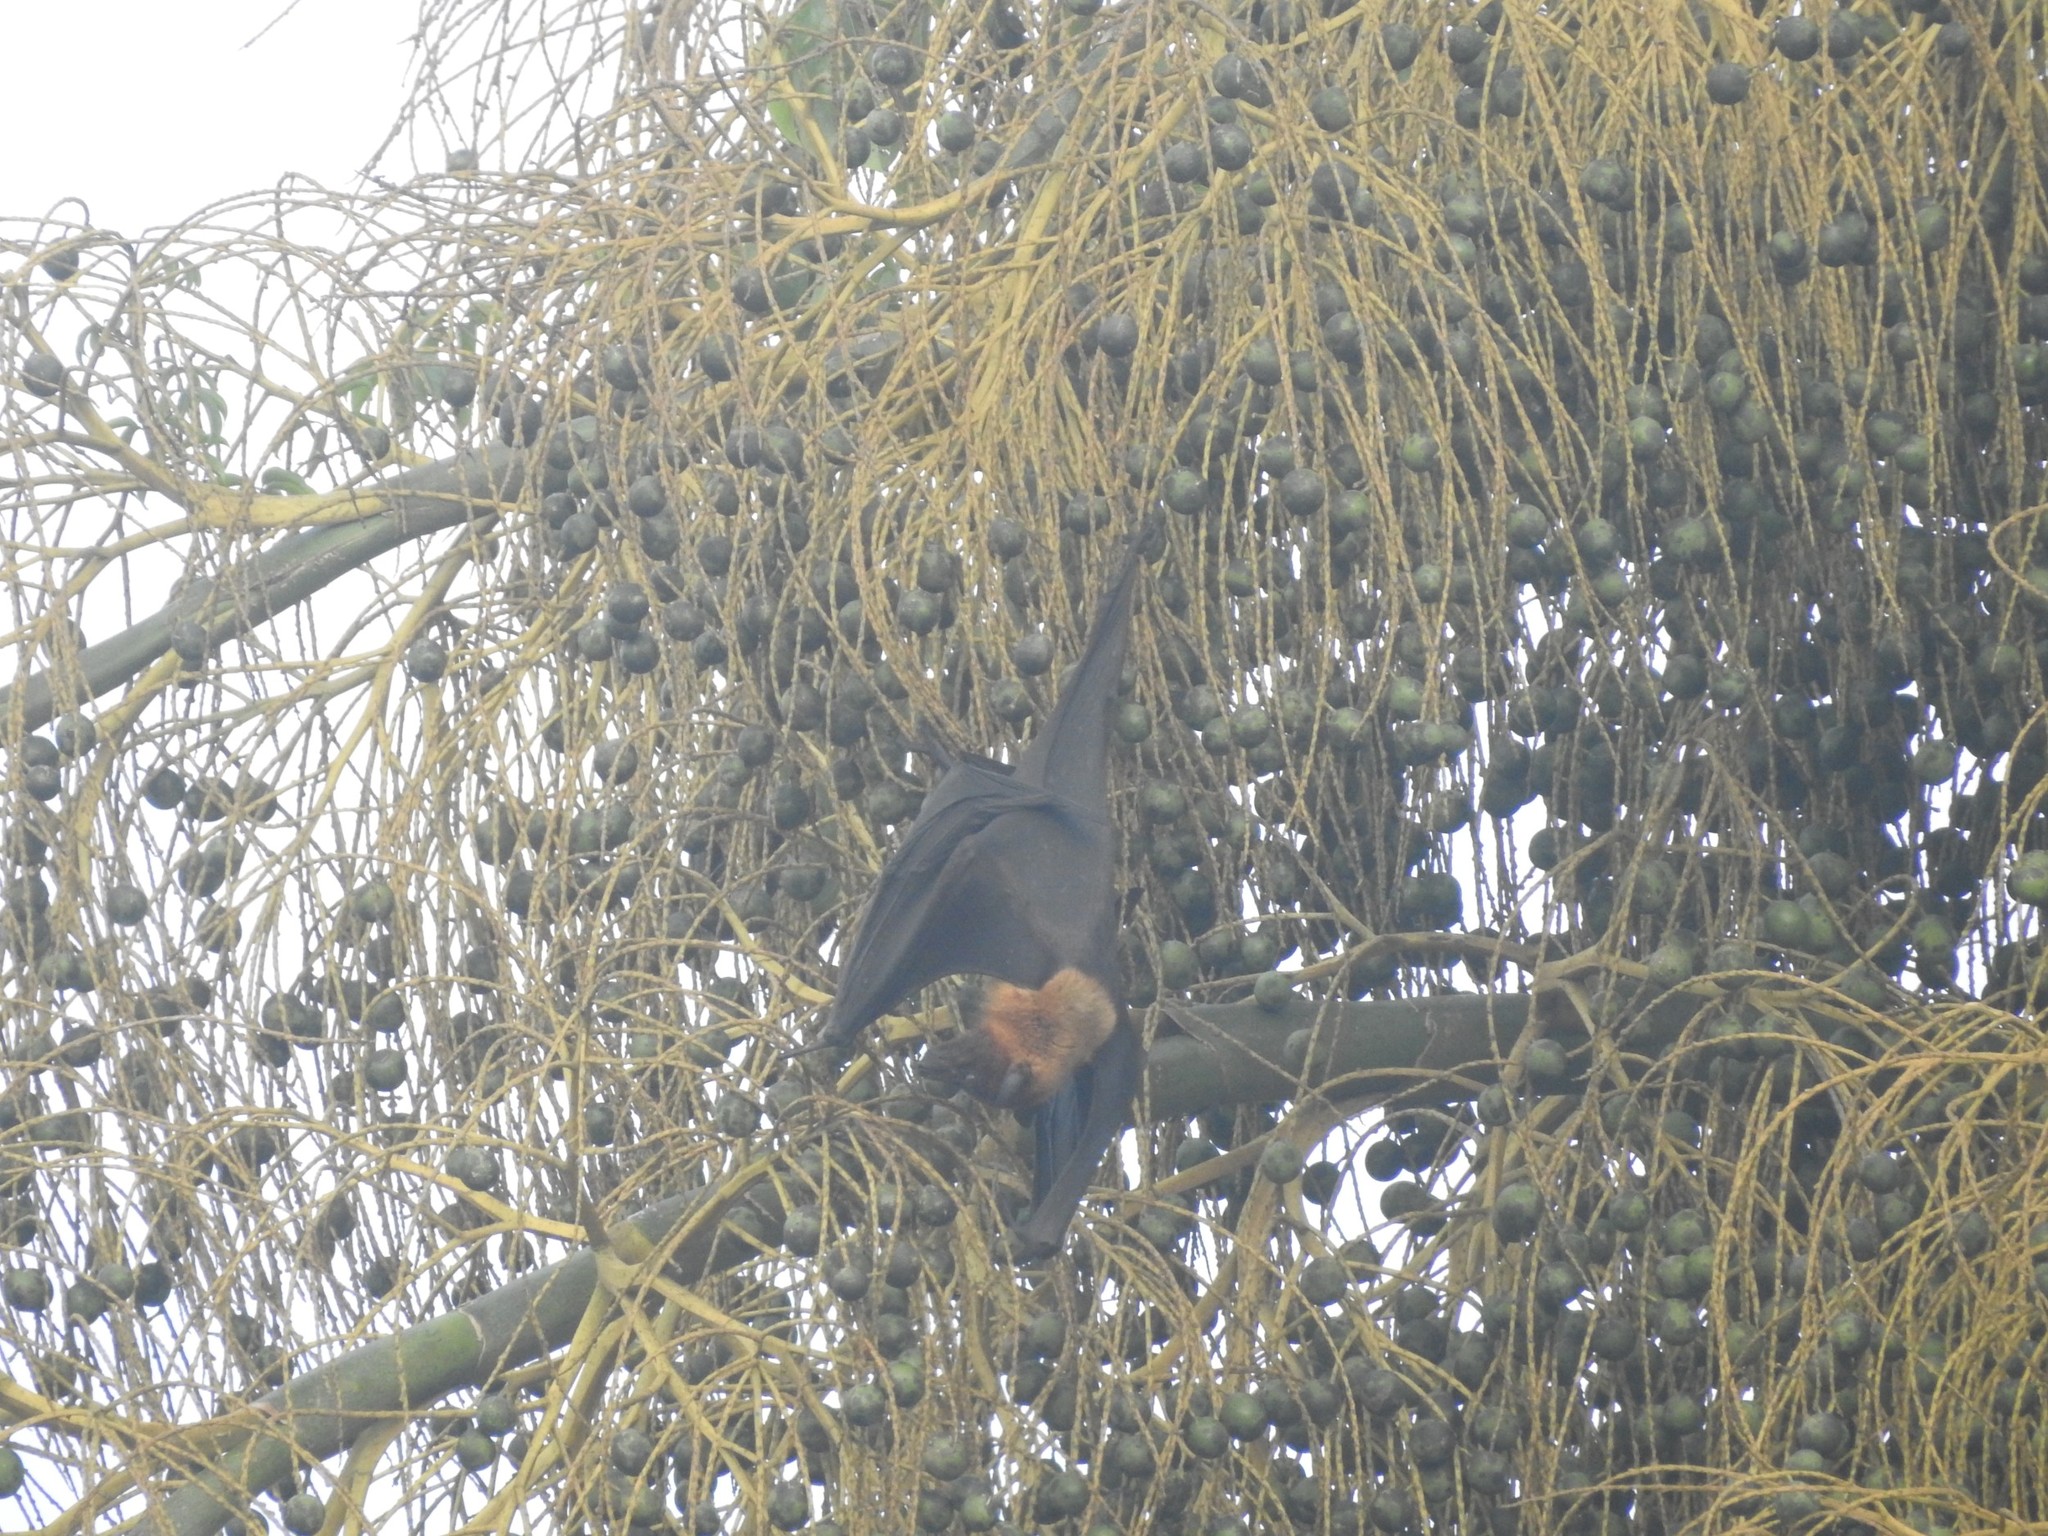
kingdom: Animalia
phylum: Chordata
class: Mammalia
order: Chiroptera
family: Pteropodidae
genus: Pteropus
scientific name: Pteropus vampyrus
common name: Large flying fox
